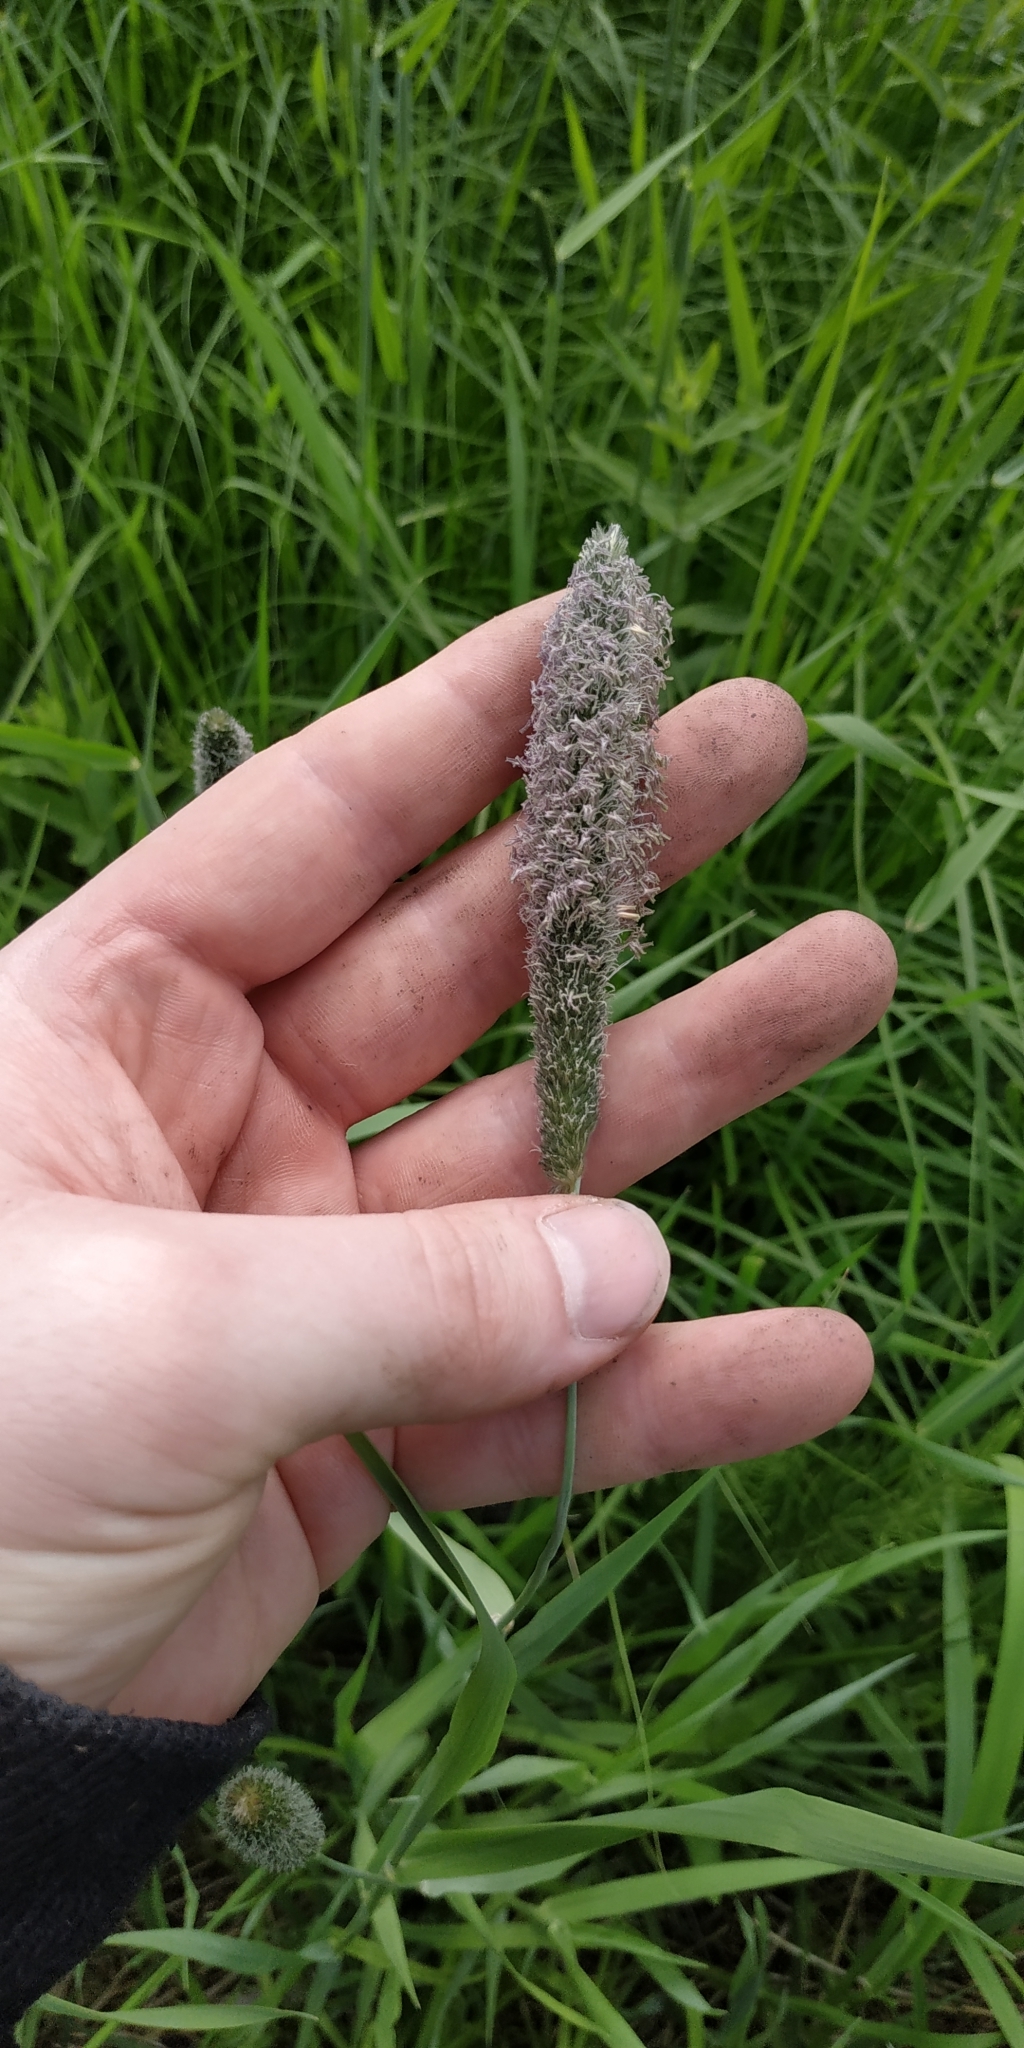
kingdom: Plantae
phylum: Tracheophyta
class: Liliopsida
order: Poales
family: Poaceae
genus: Alopecurus
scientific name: Alopecurus pratensis
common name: Meadow foxtail
